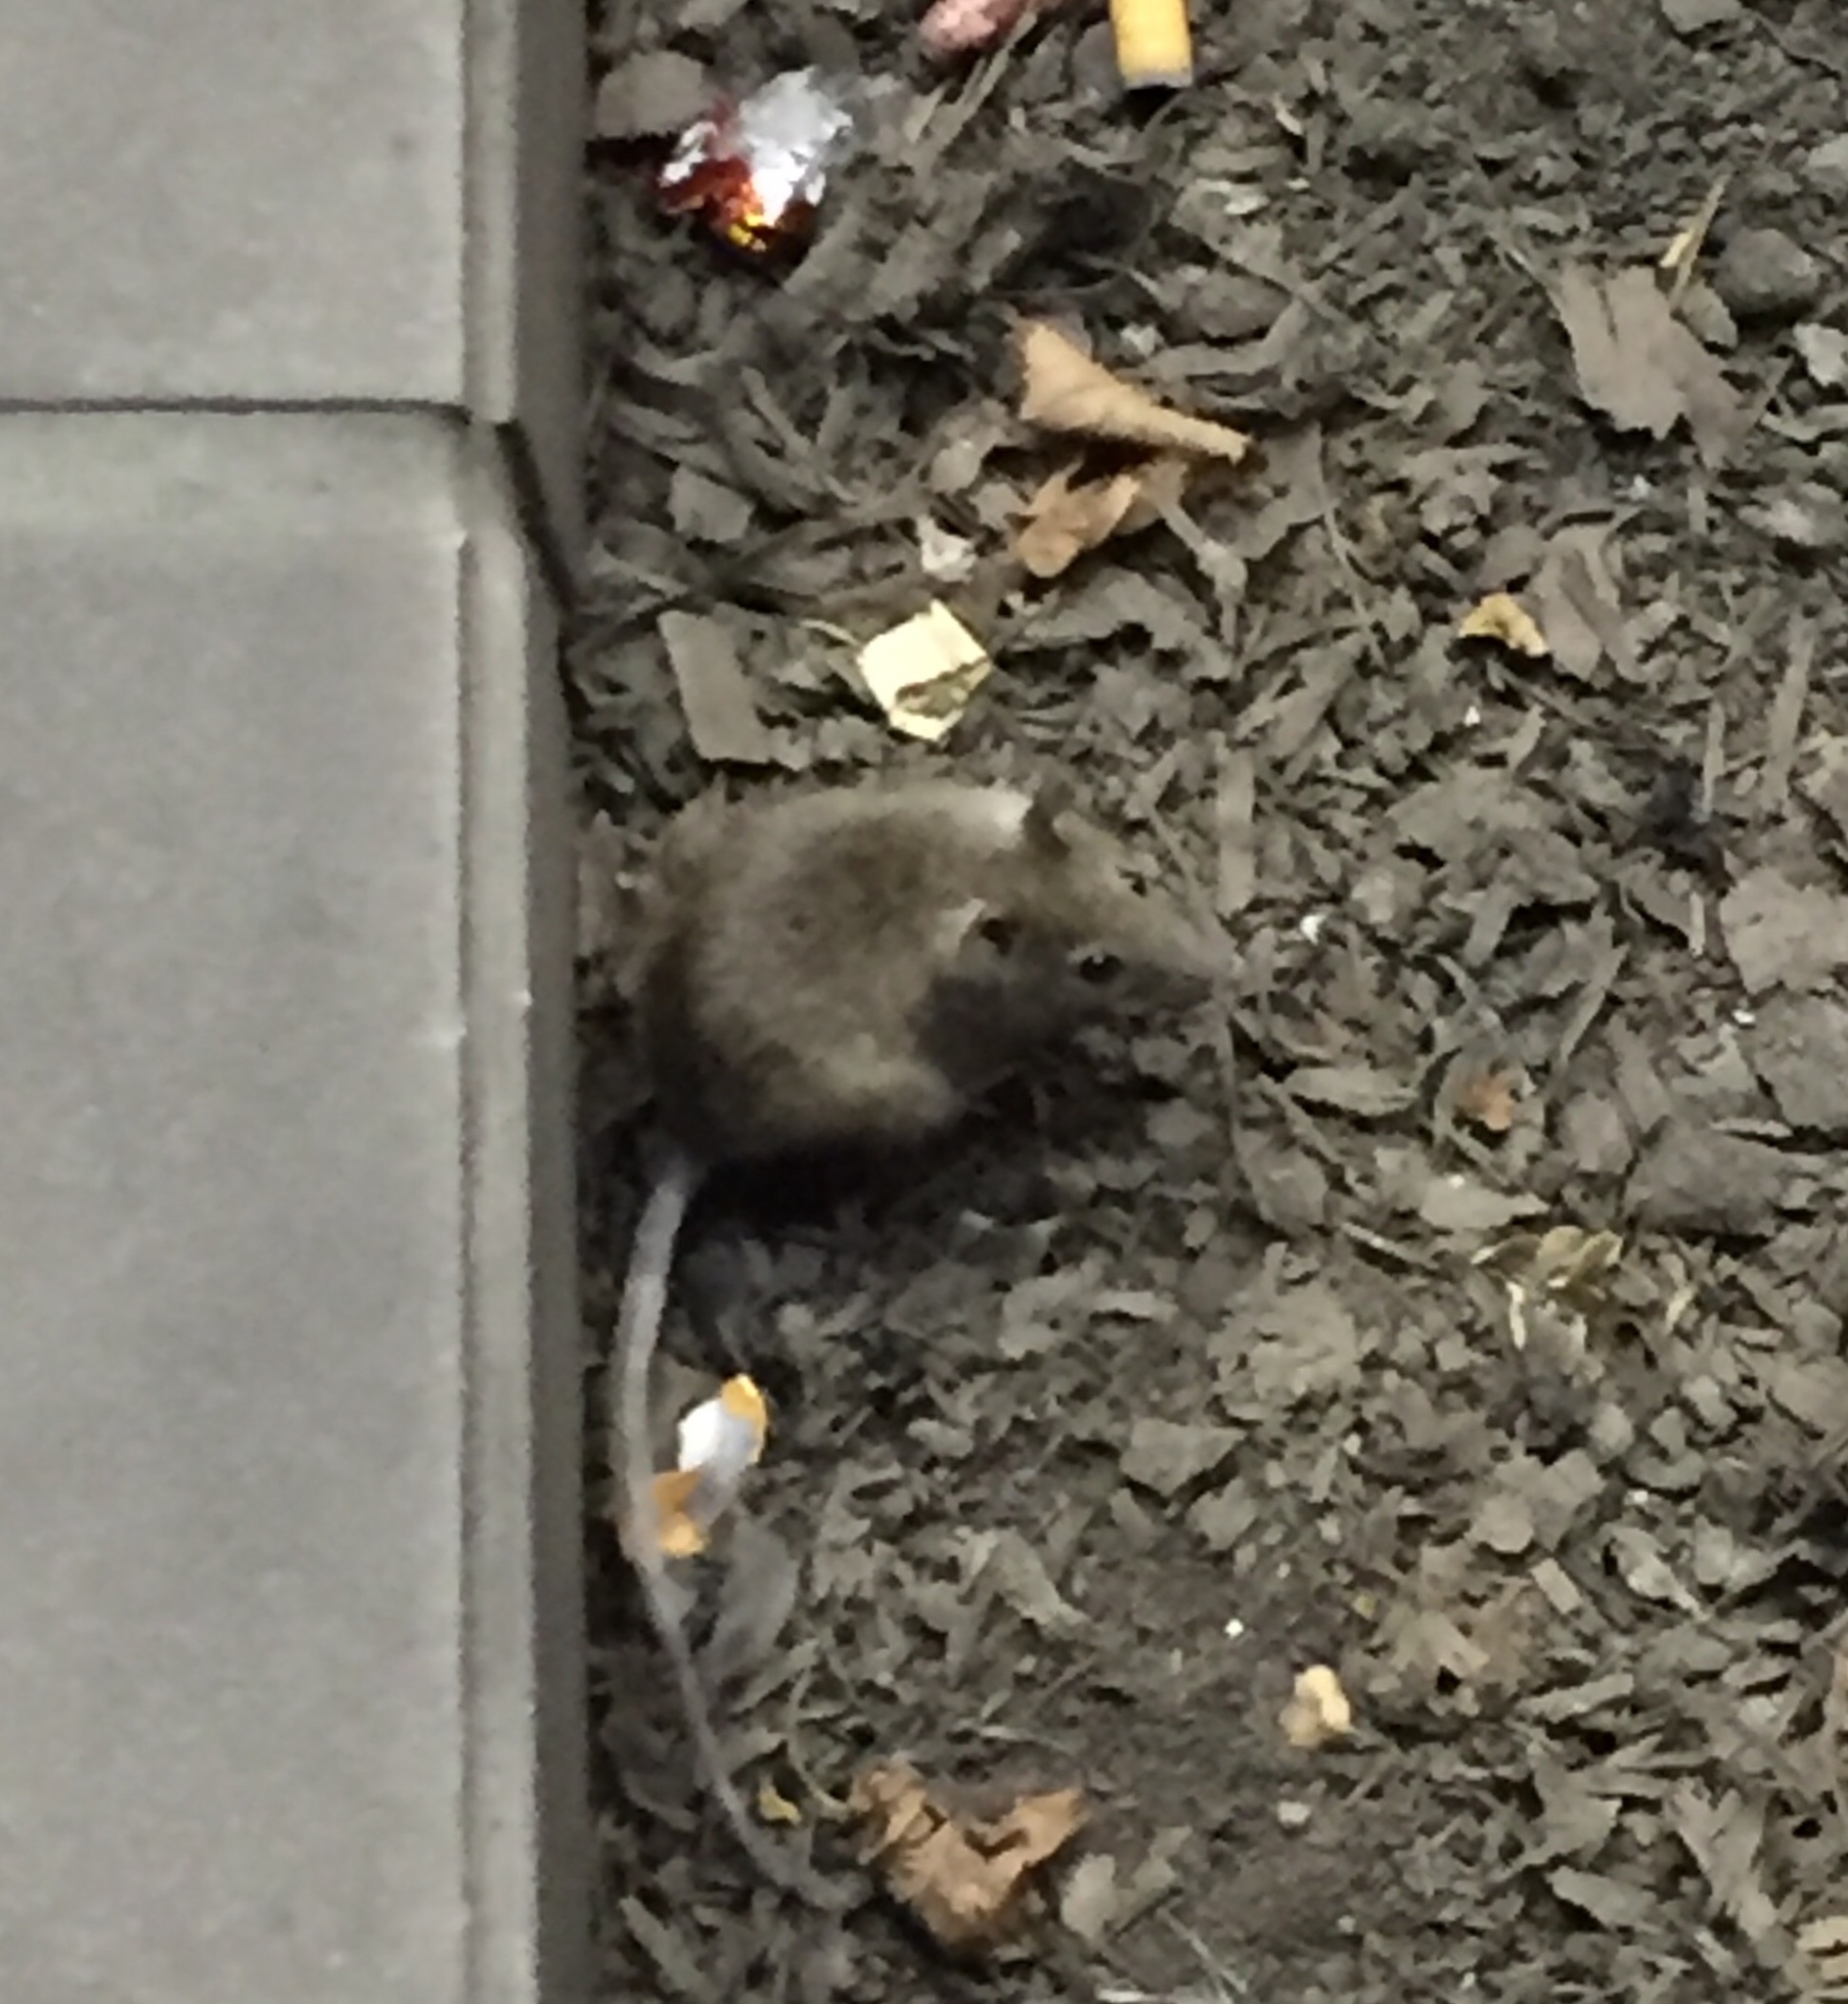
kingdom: Animalia
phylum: Chordata
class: Mammalia
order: Rodentia
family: Muridae
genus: Rattus
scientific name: Rattus rattus
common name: Black rat
